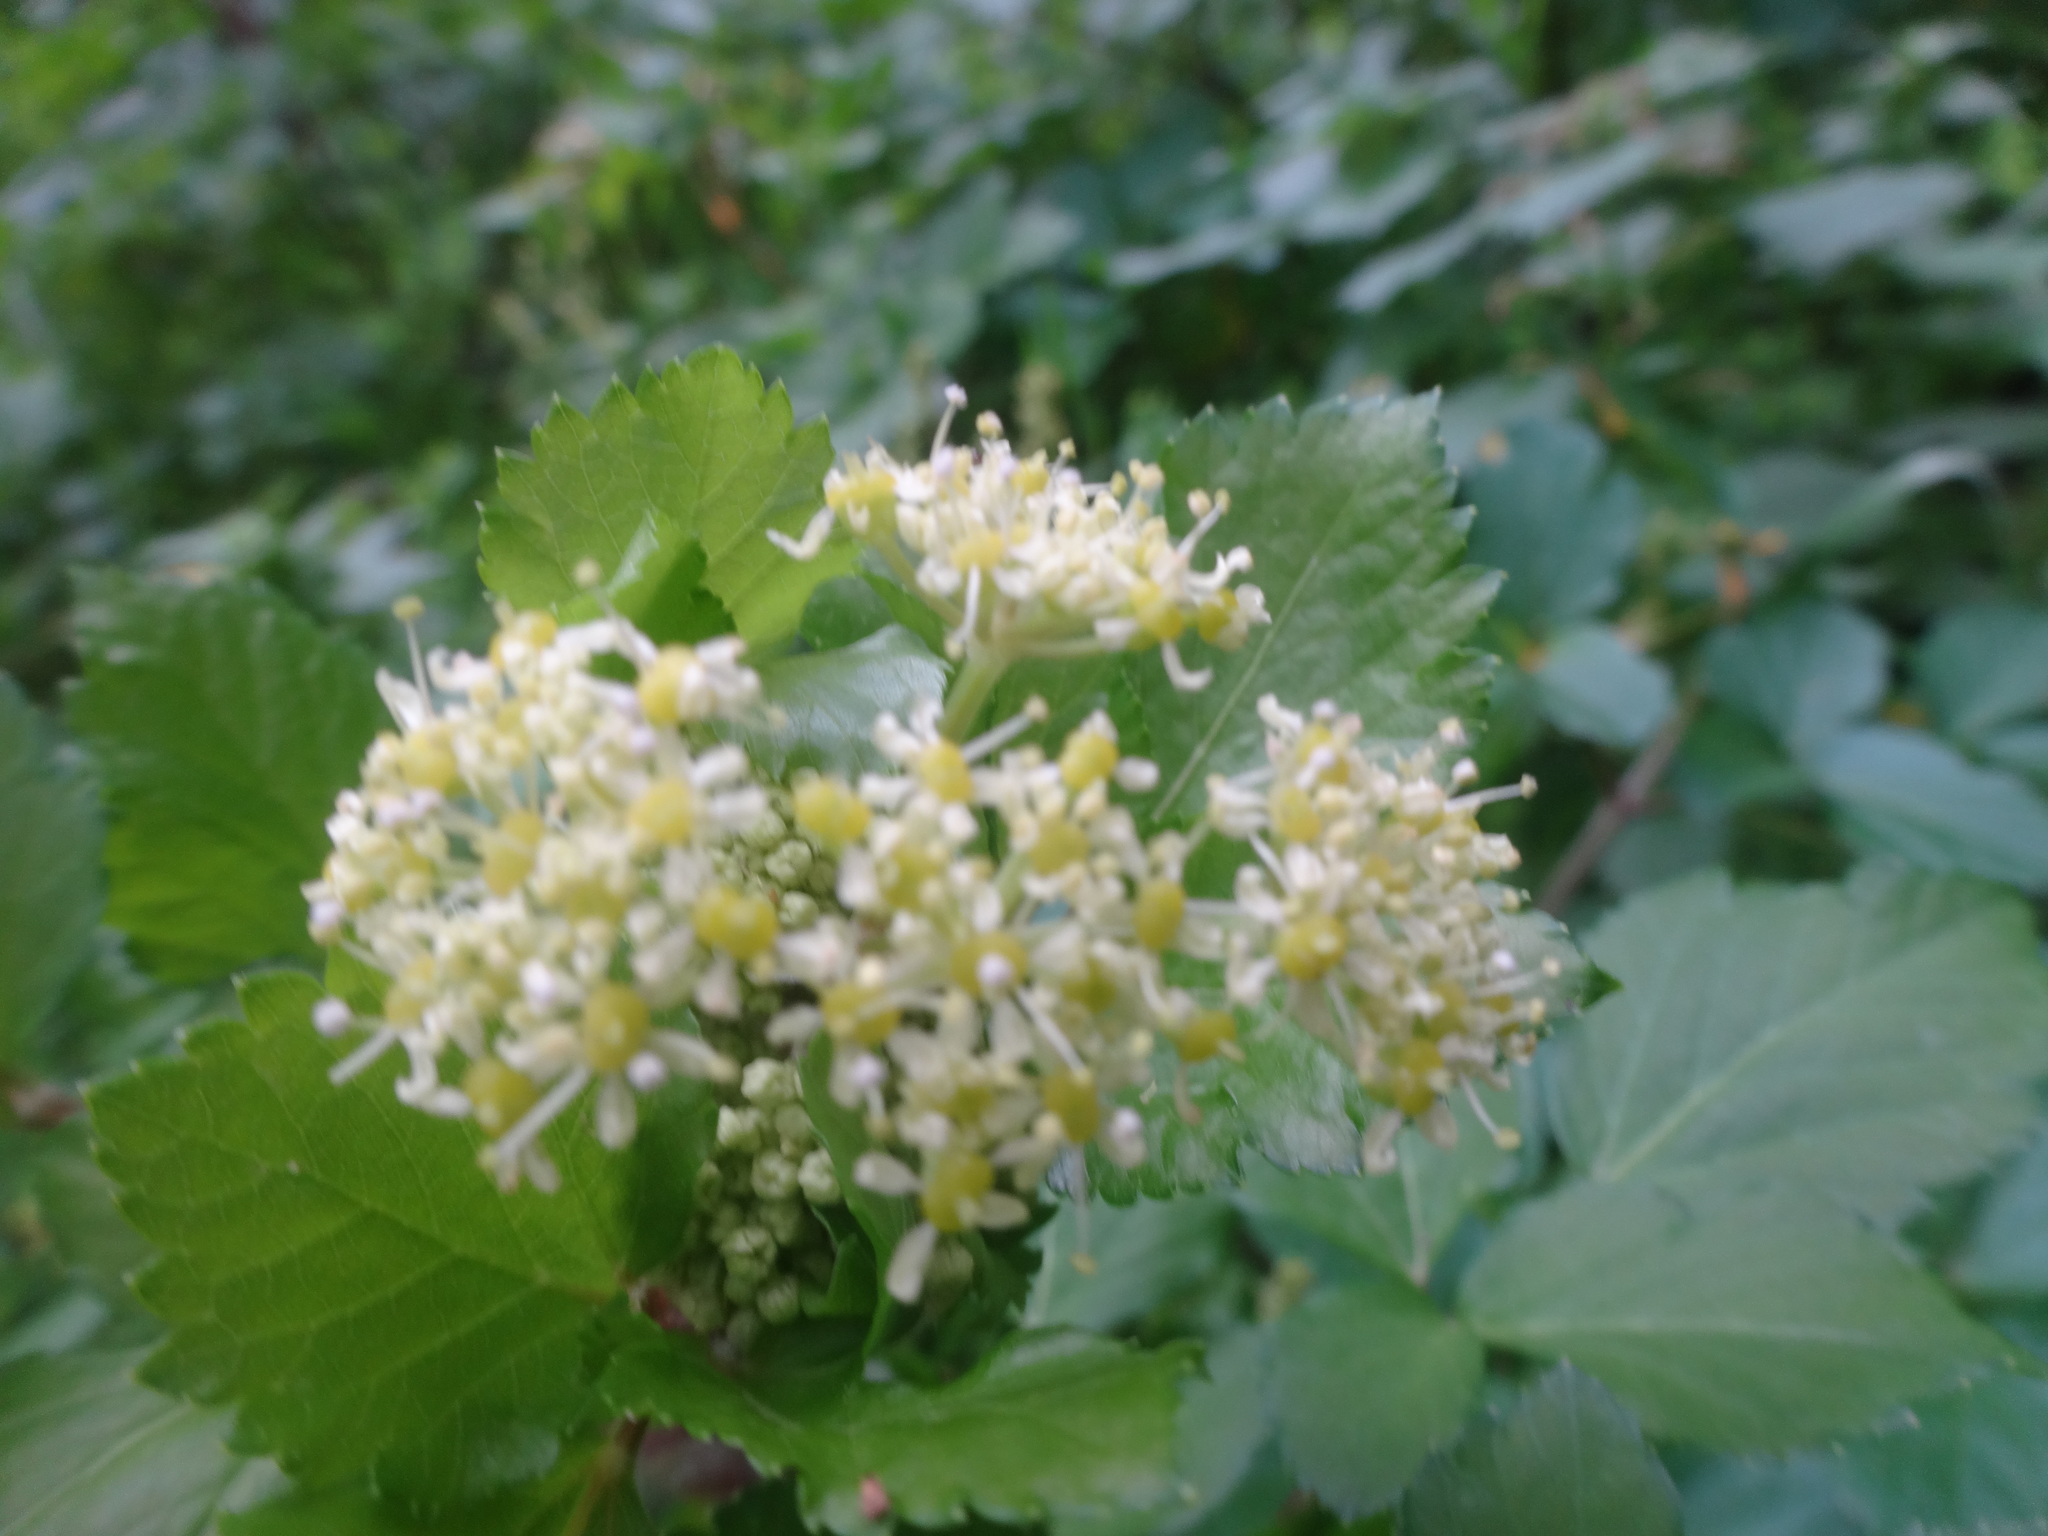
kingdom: Plantae
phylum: Tracheophyta
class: Magnoliopsida
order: Apiales
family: Apiaceae
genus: Smyrnium
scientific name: Smyrnium olusatrum
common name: Alexanders
